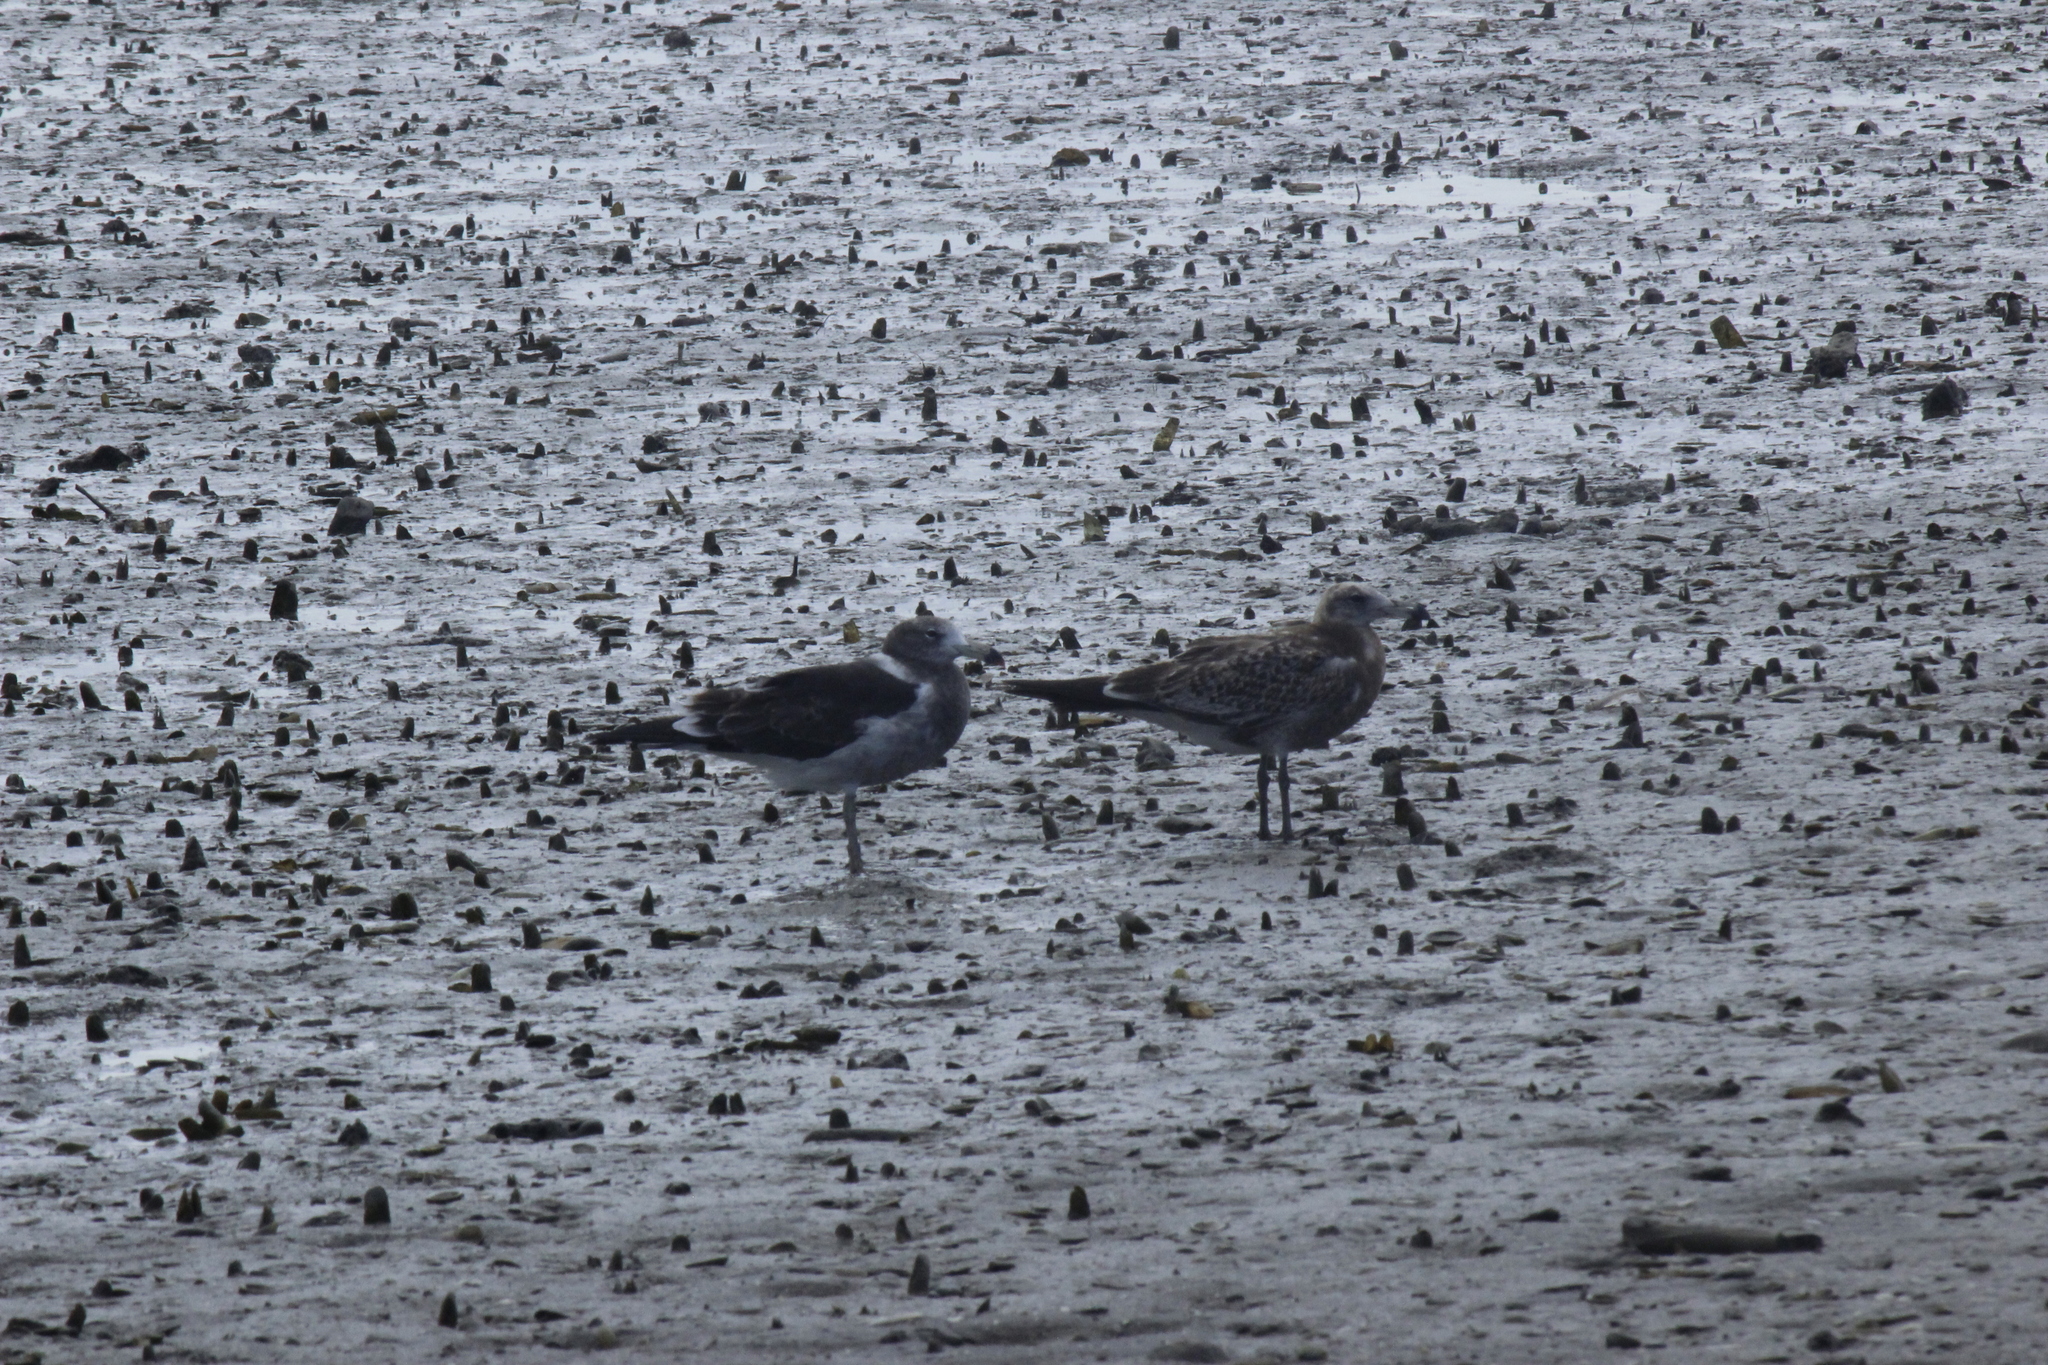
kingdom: Animalia
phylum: Chordata
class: Aves
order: Charadriiformes
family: Laridae
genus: Larus
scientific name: Larus atlanticus
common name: Olrog's gull
